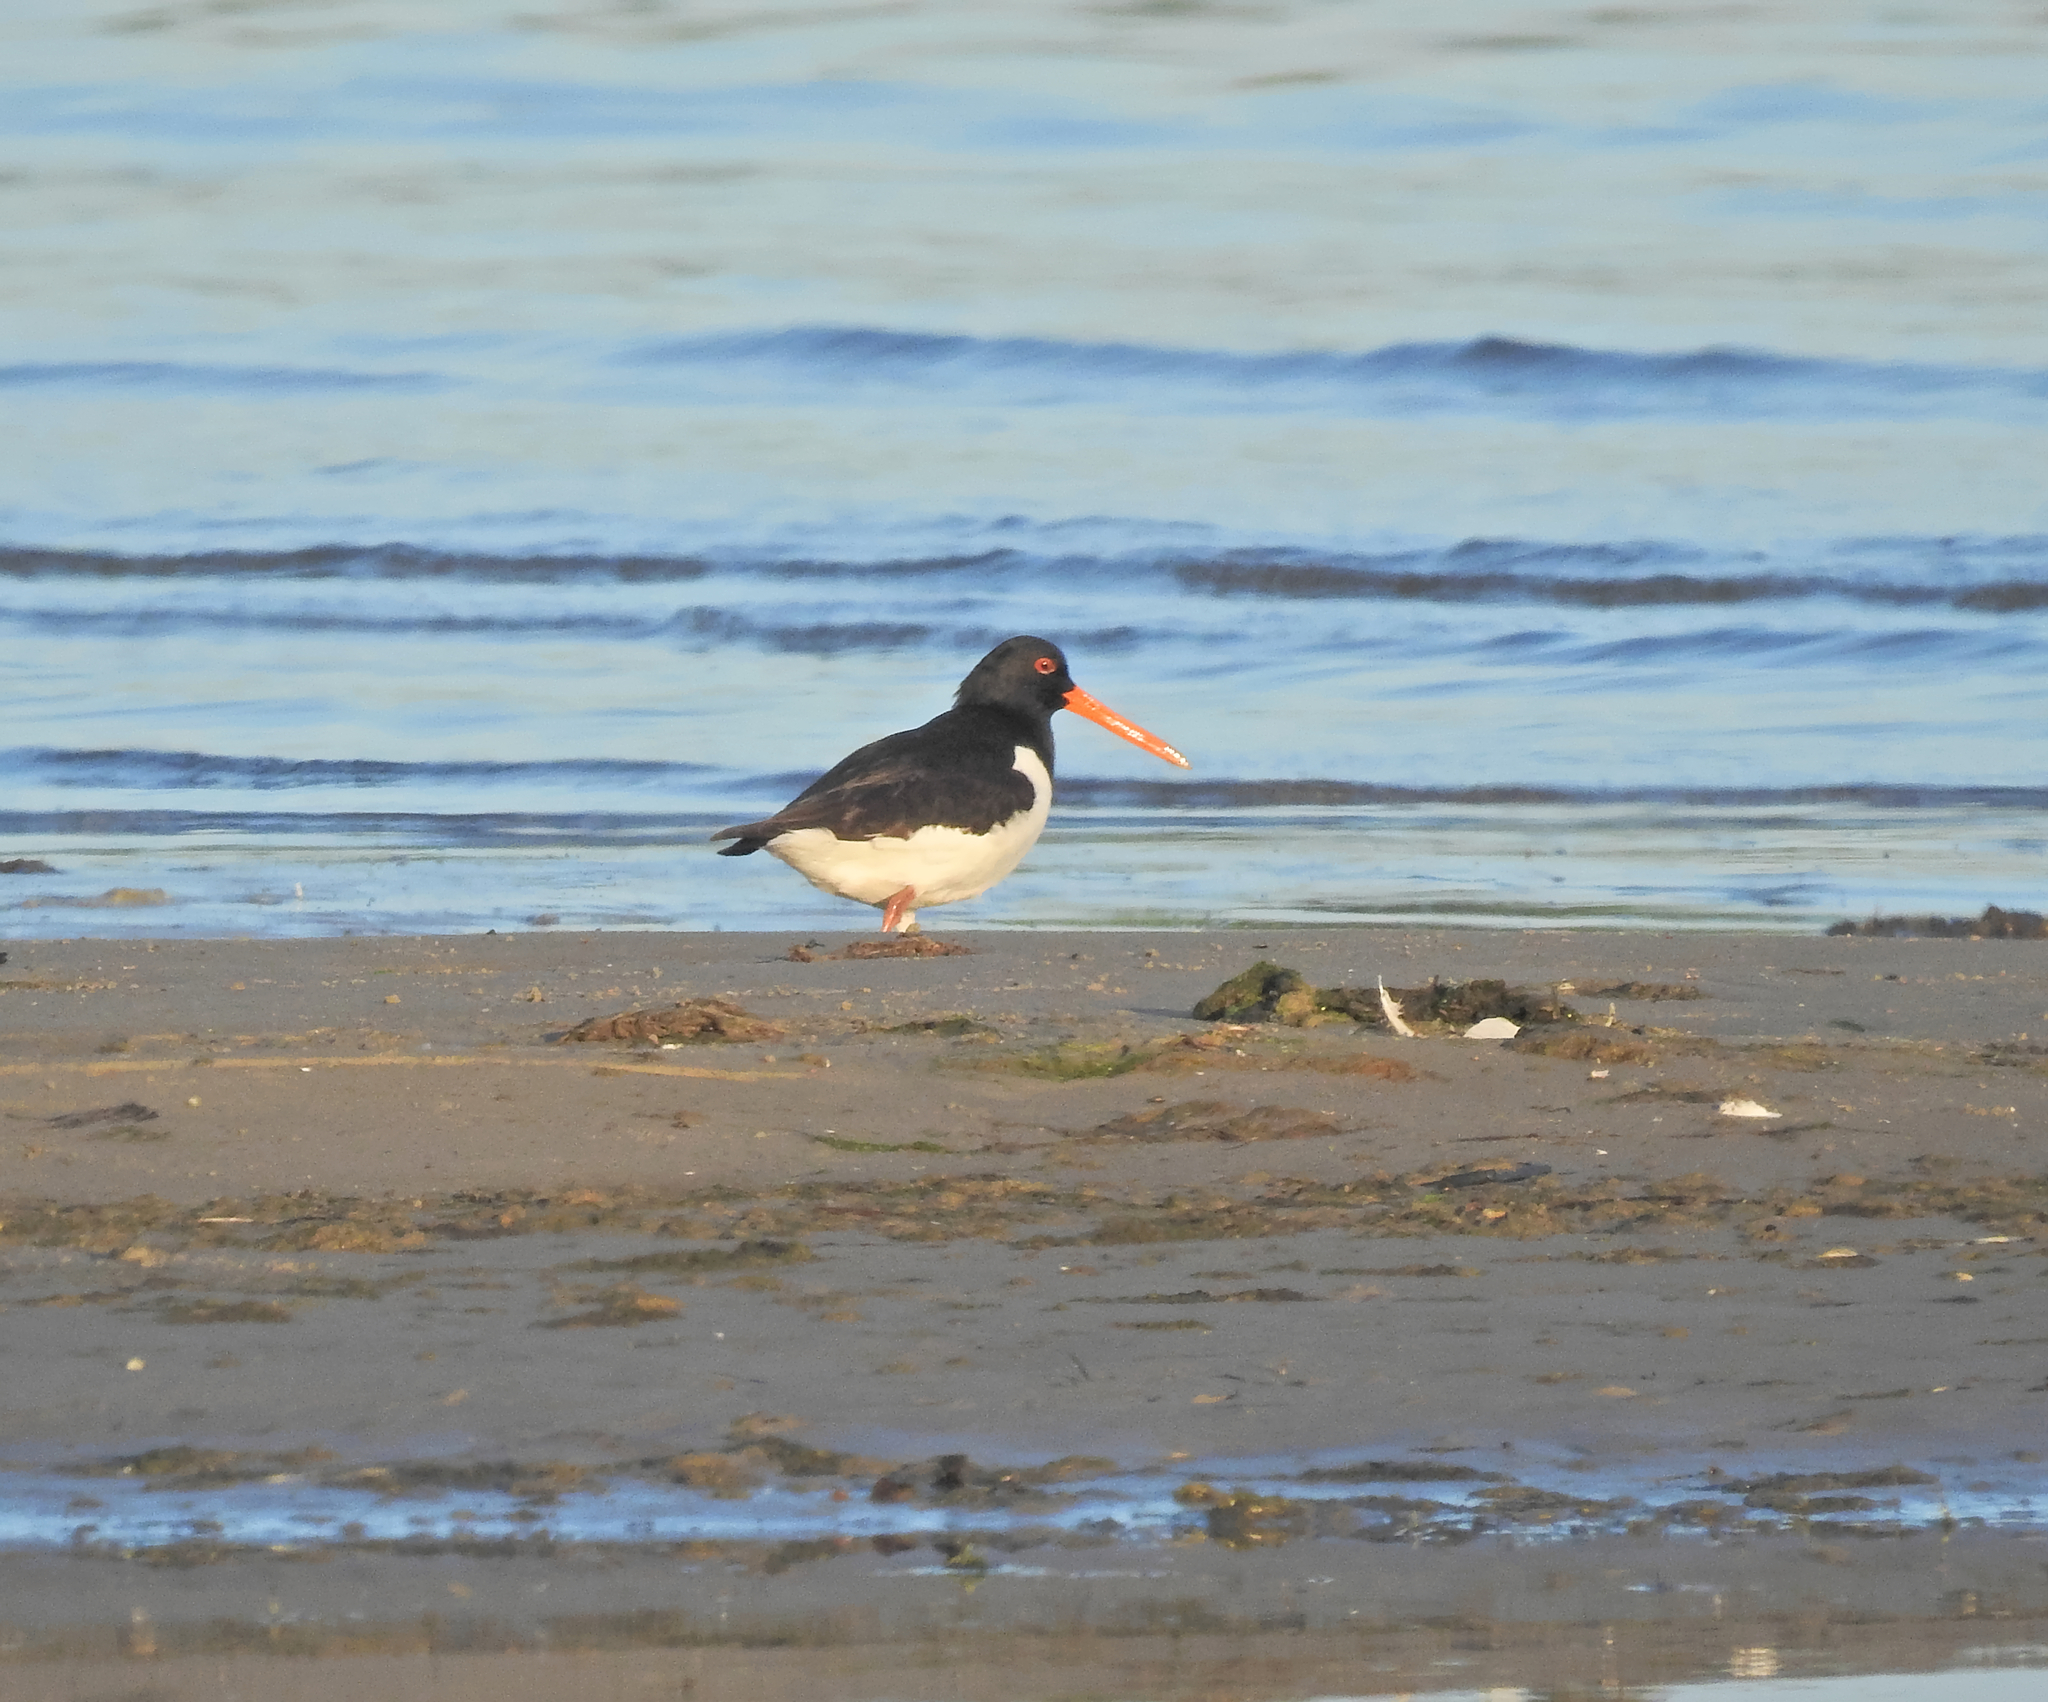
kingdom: Animalia
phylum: Chordata
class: Aves
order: Charadriiformes
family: Haematopodidae
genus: Haematopus
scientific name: Haematopus ostralegus
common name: Eurasian oystercatcher
